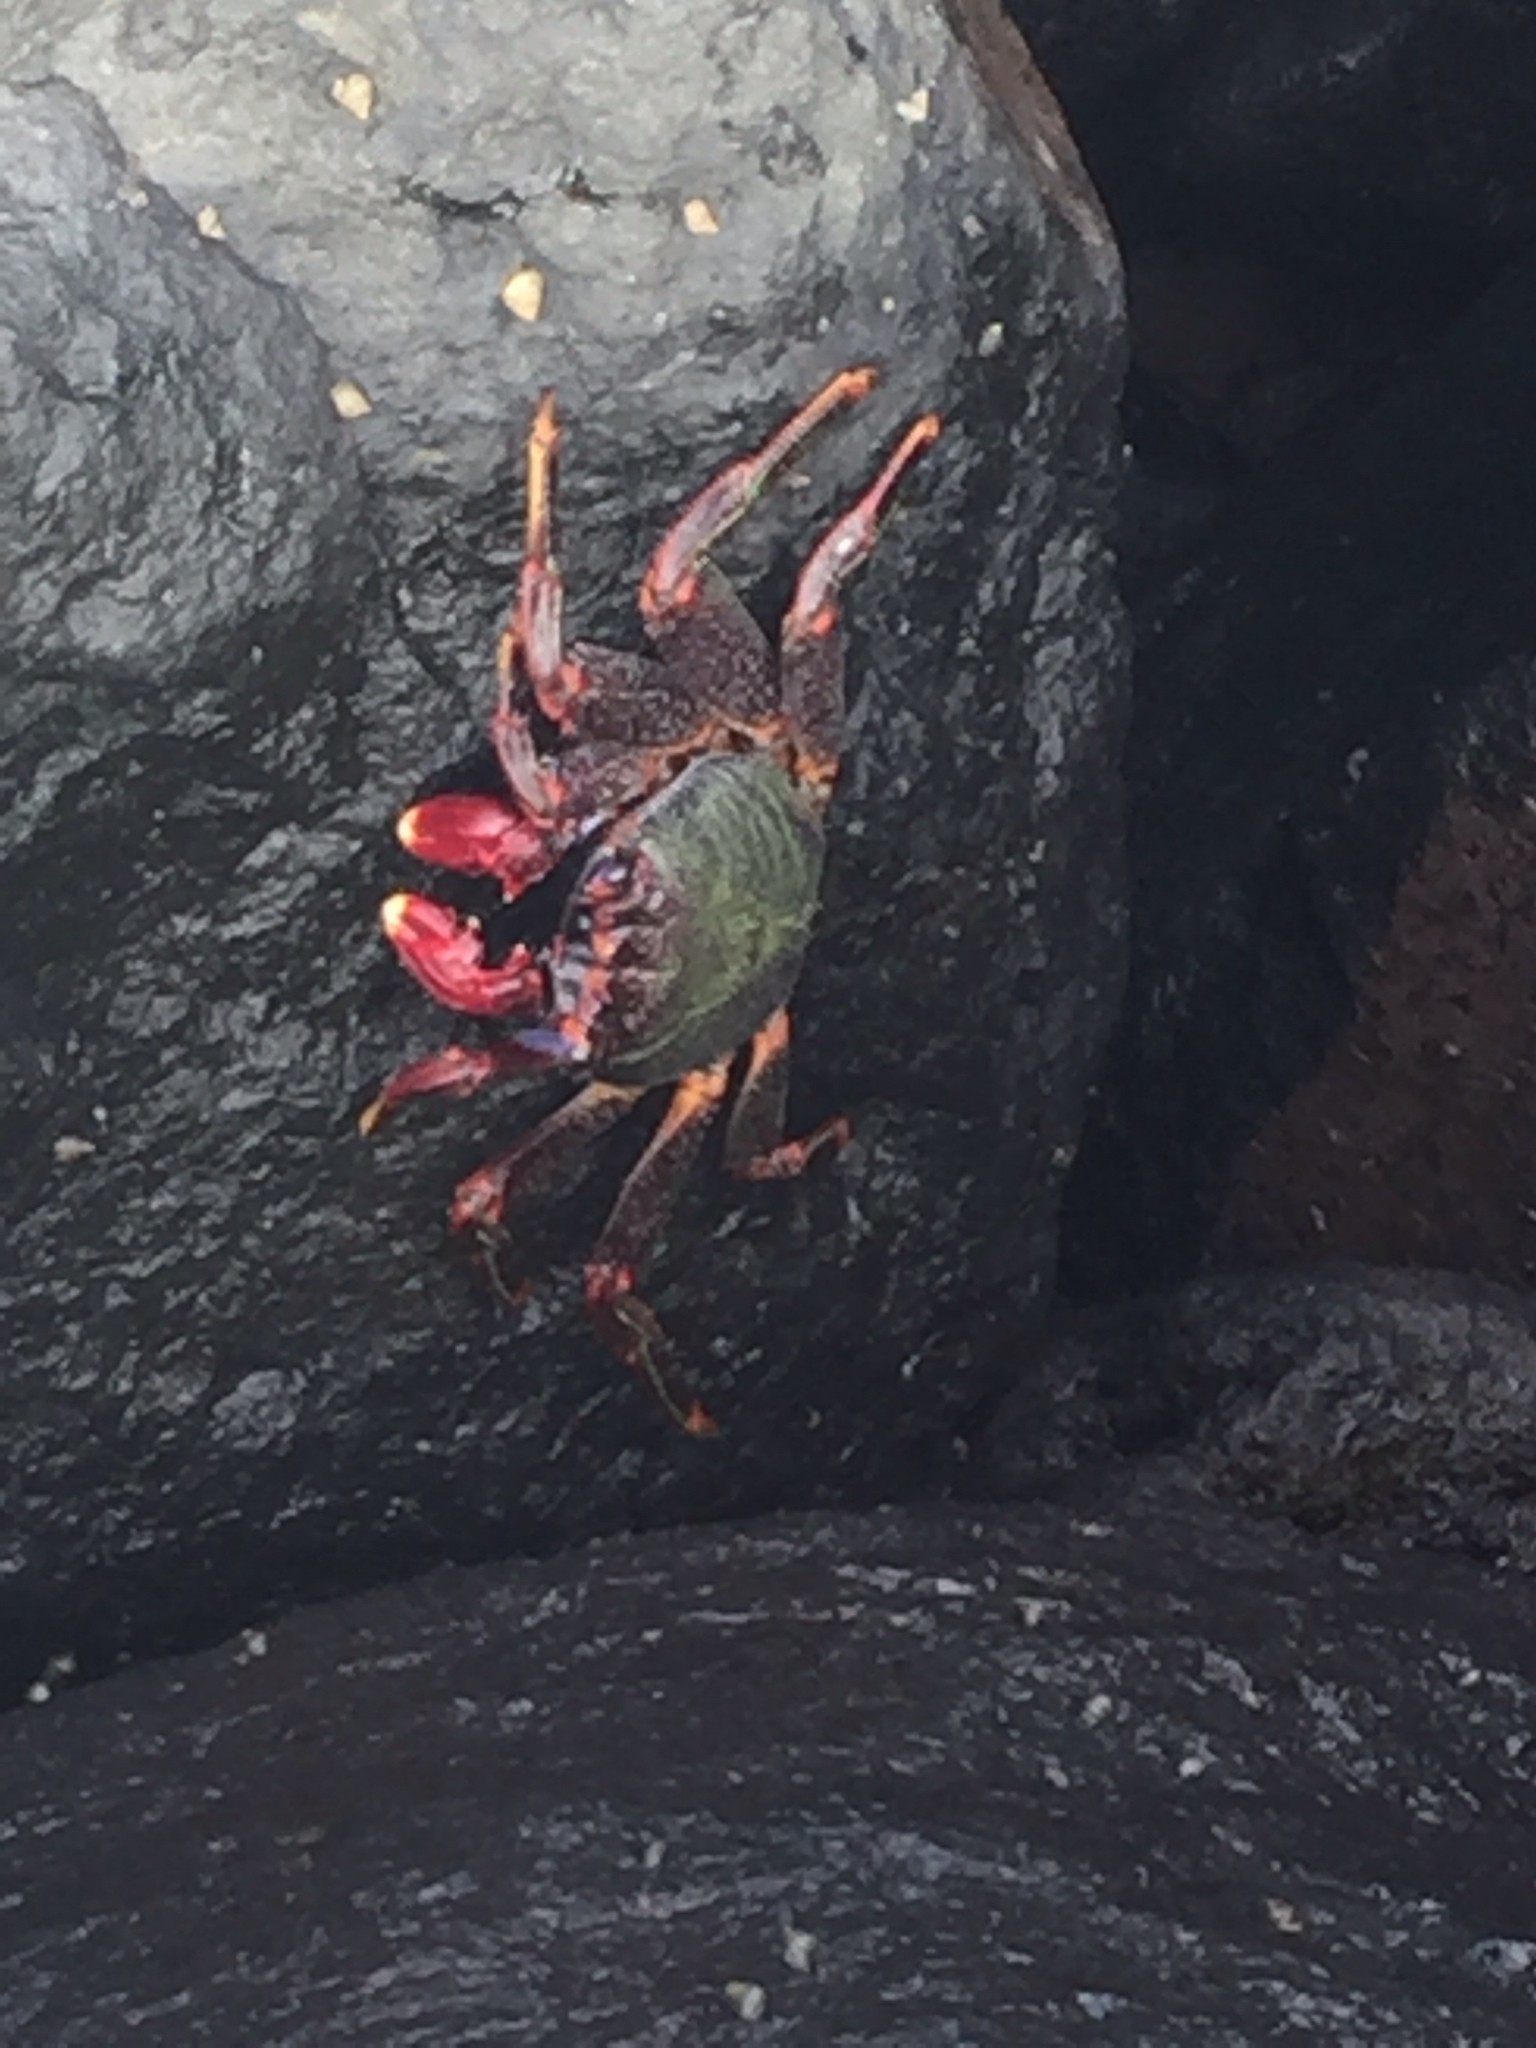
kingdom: Animalia
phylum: Arthropoda
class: Malacostraca
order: Decapoda
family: Grapsidae
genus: Grapsus
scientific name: Grapsus adscensionis
